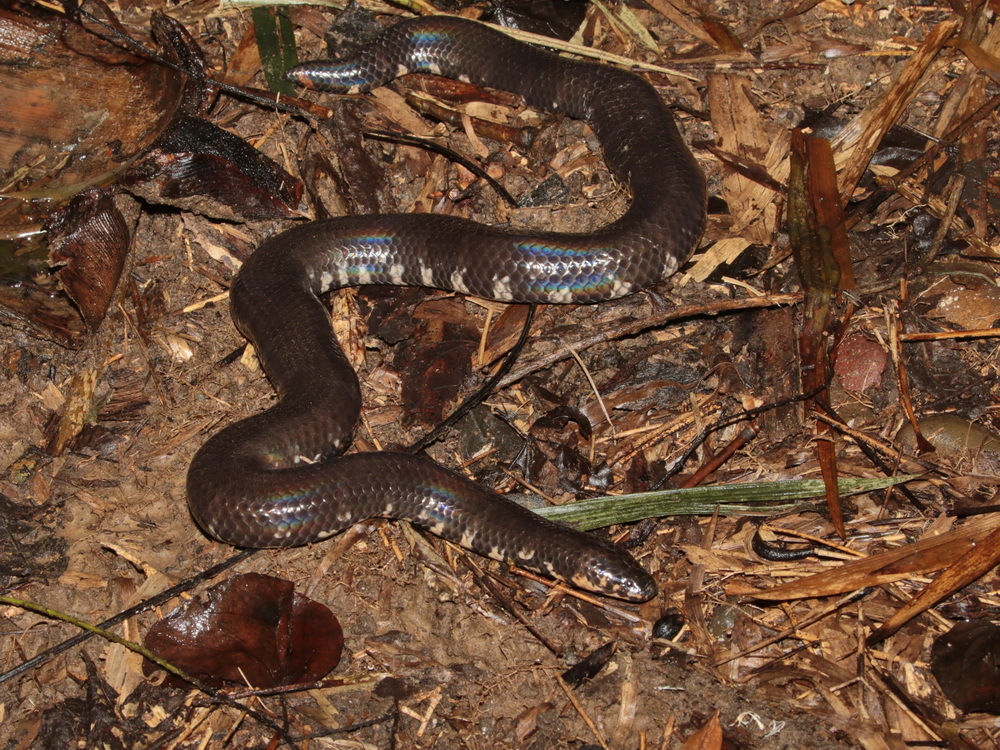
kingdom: Animalia
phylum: Chordata
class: Squamata
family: Cylindrophiidae
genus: Cylindrophis
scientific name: Cylindrophis jodiae
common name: Jodi’s pipe-snake
